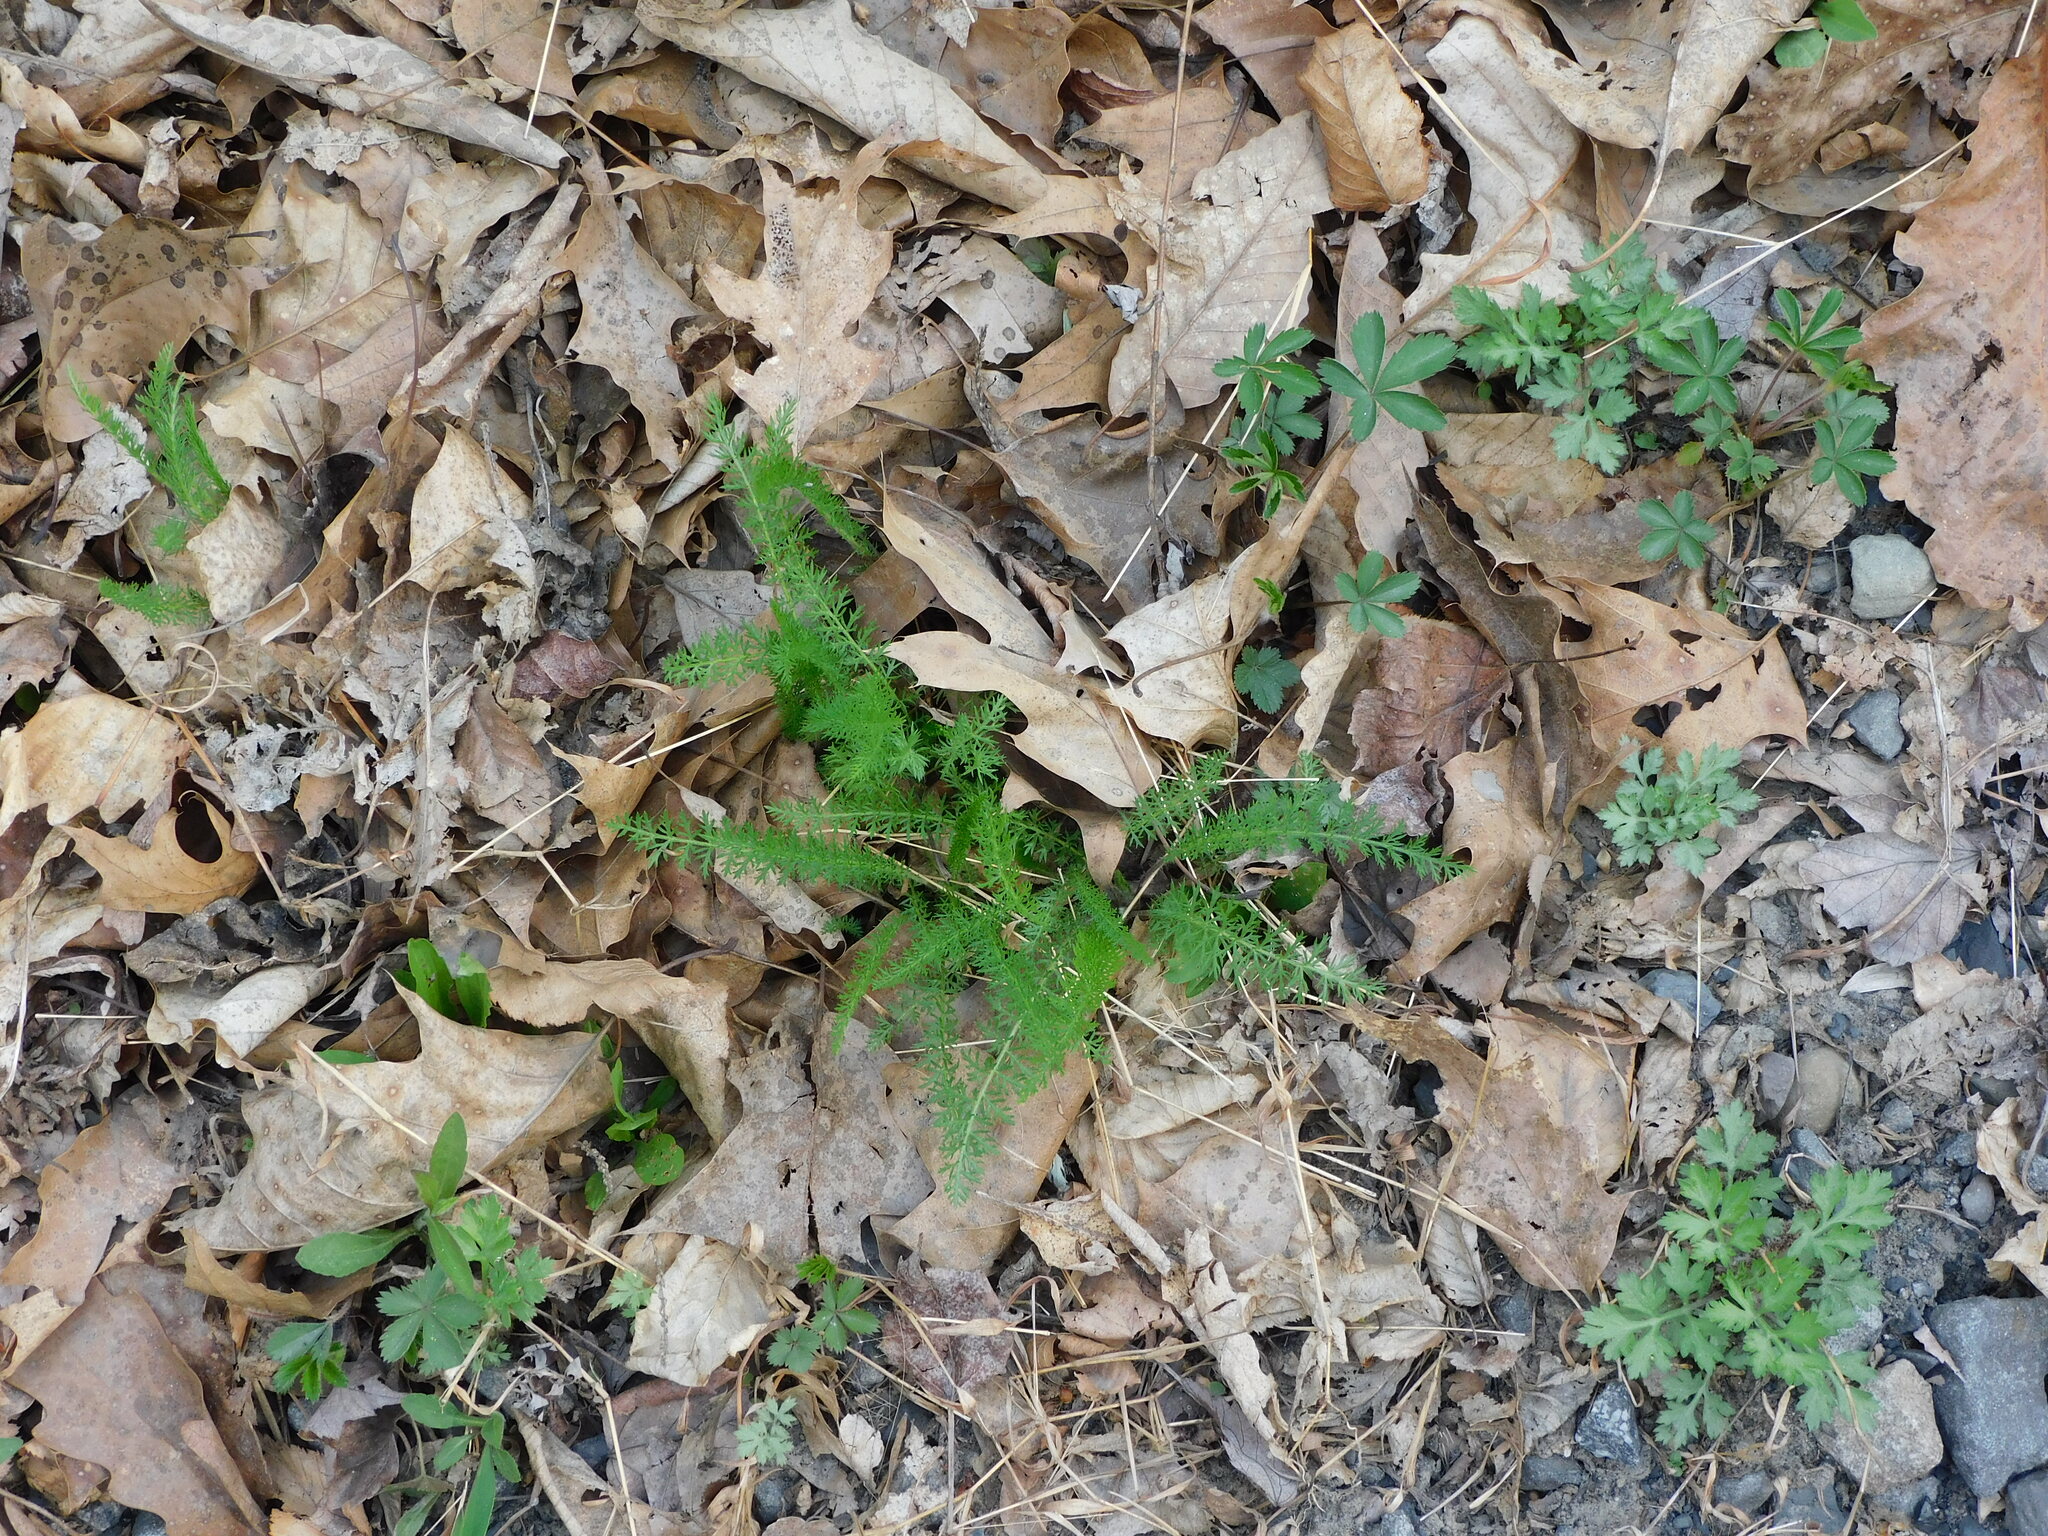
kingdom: Plantae
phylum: Tracheophyta
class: Magnoliopsida
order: Asterales
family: Asteraceae
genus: Achillea
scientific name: Achillea millefolium
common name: Yarrow
